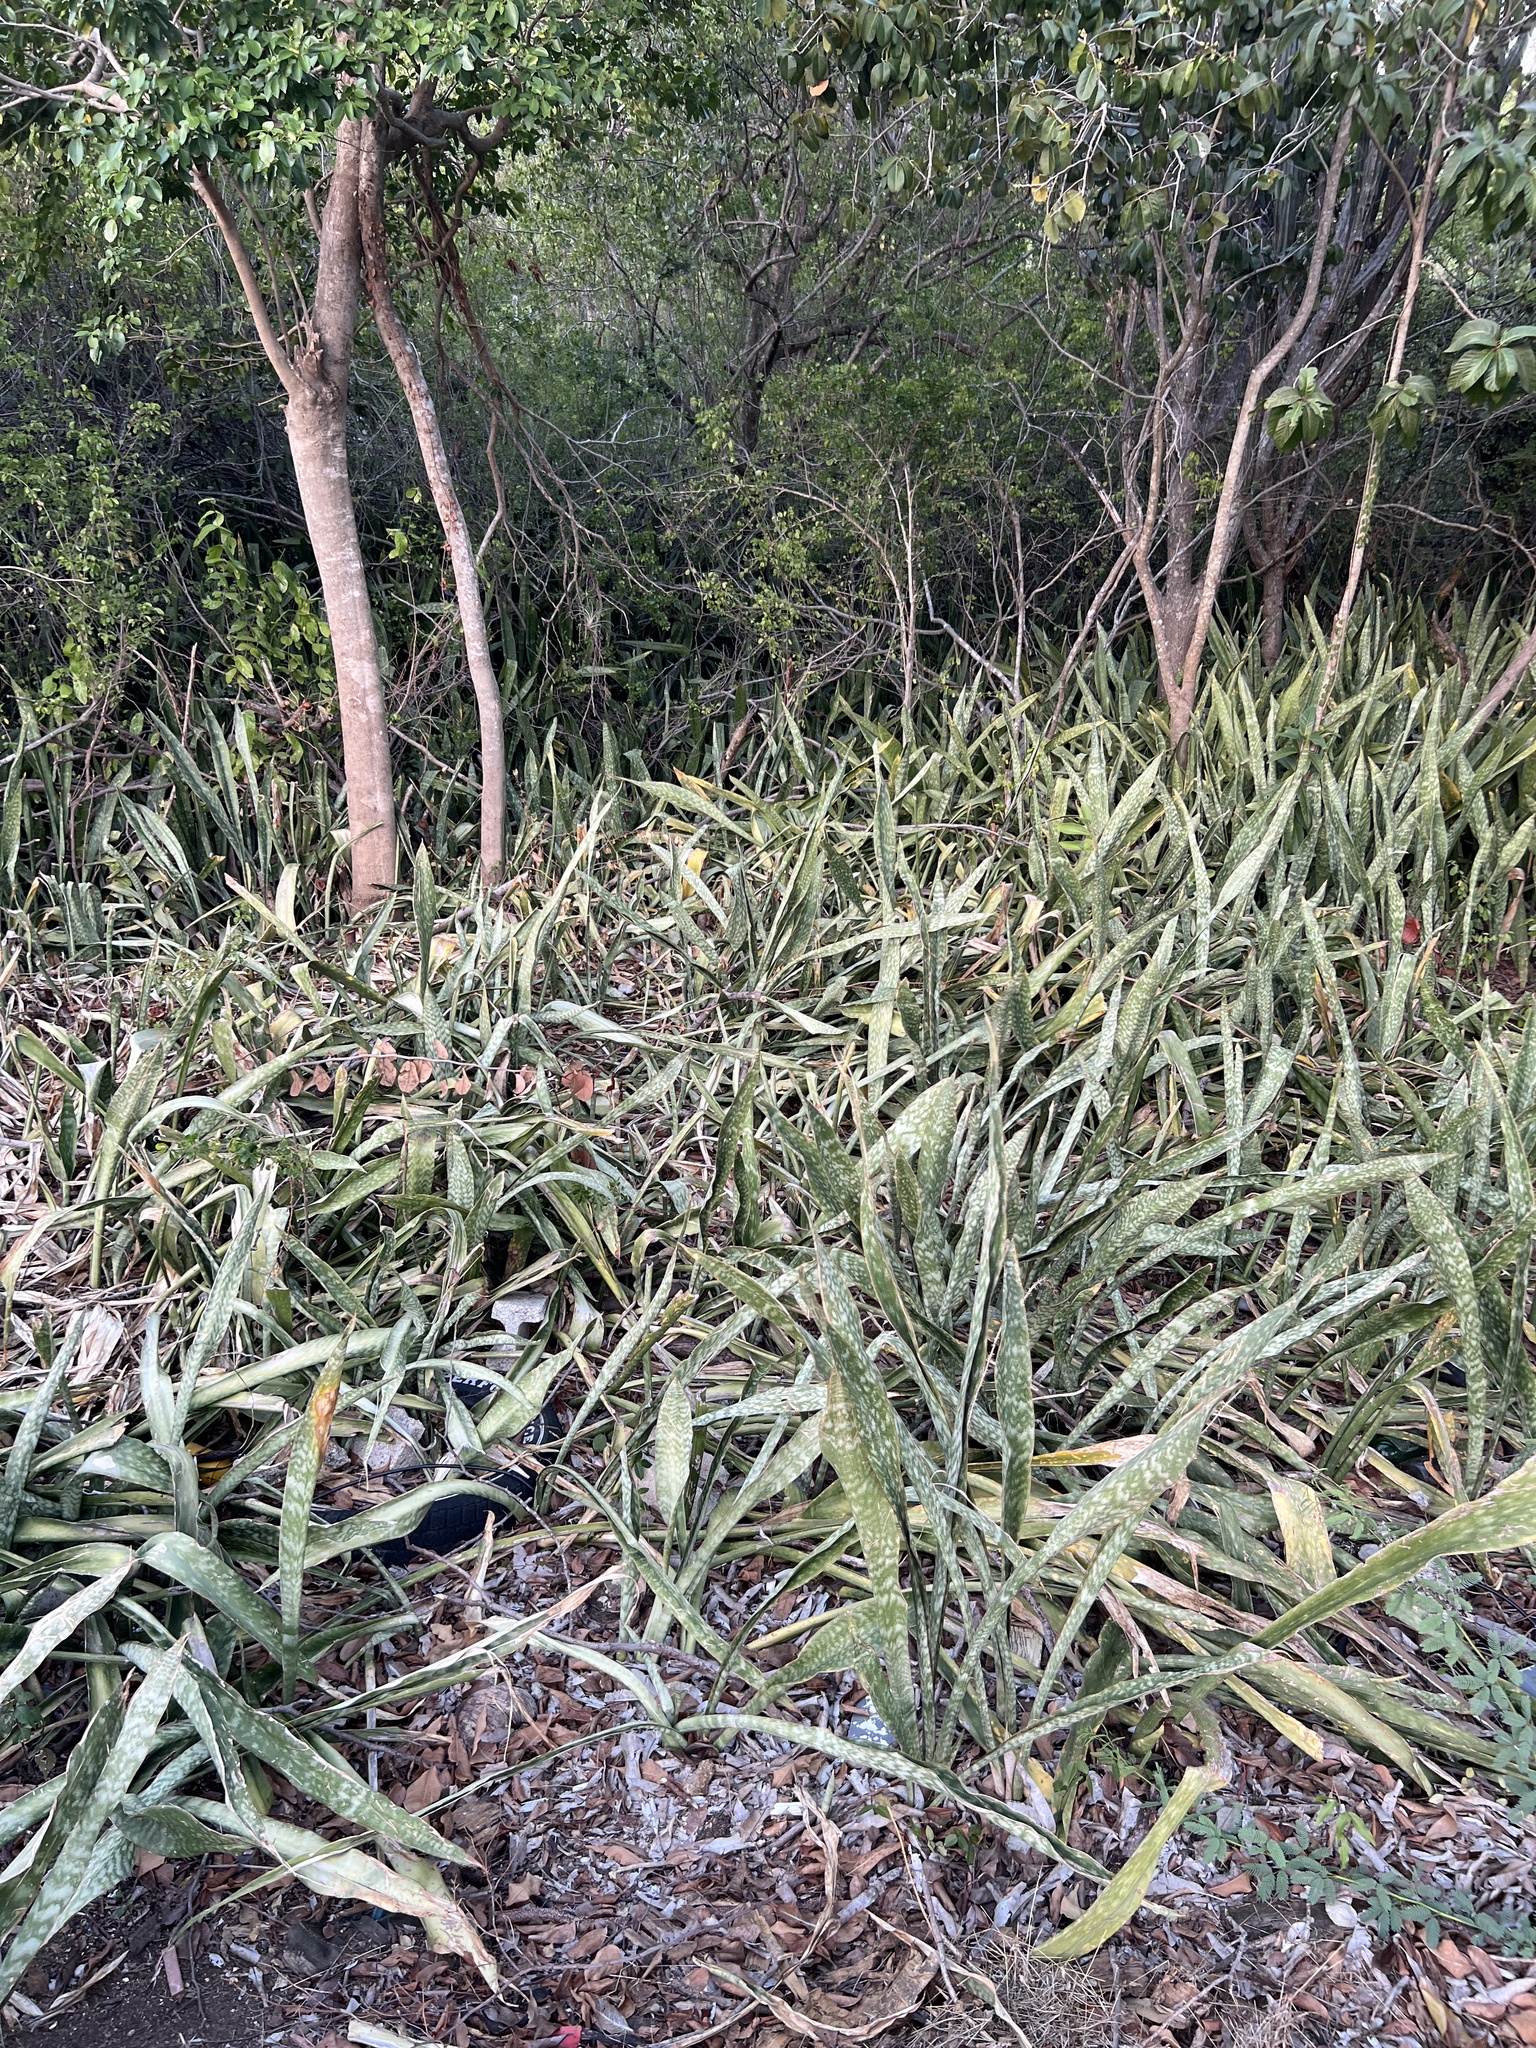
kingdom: Plantae
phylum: Tracheophyta
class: Liliopsida
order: Asparagales
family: Asparagaceae
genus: Dracaena
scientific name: Dracaena hyacinthoides
